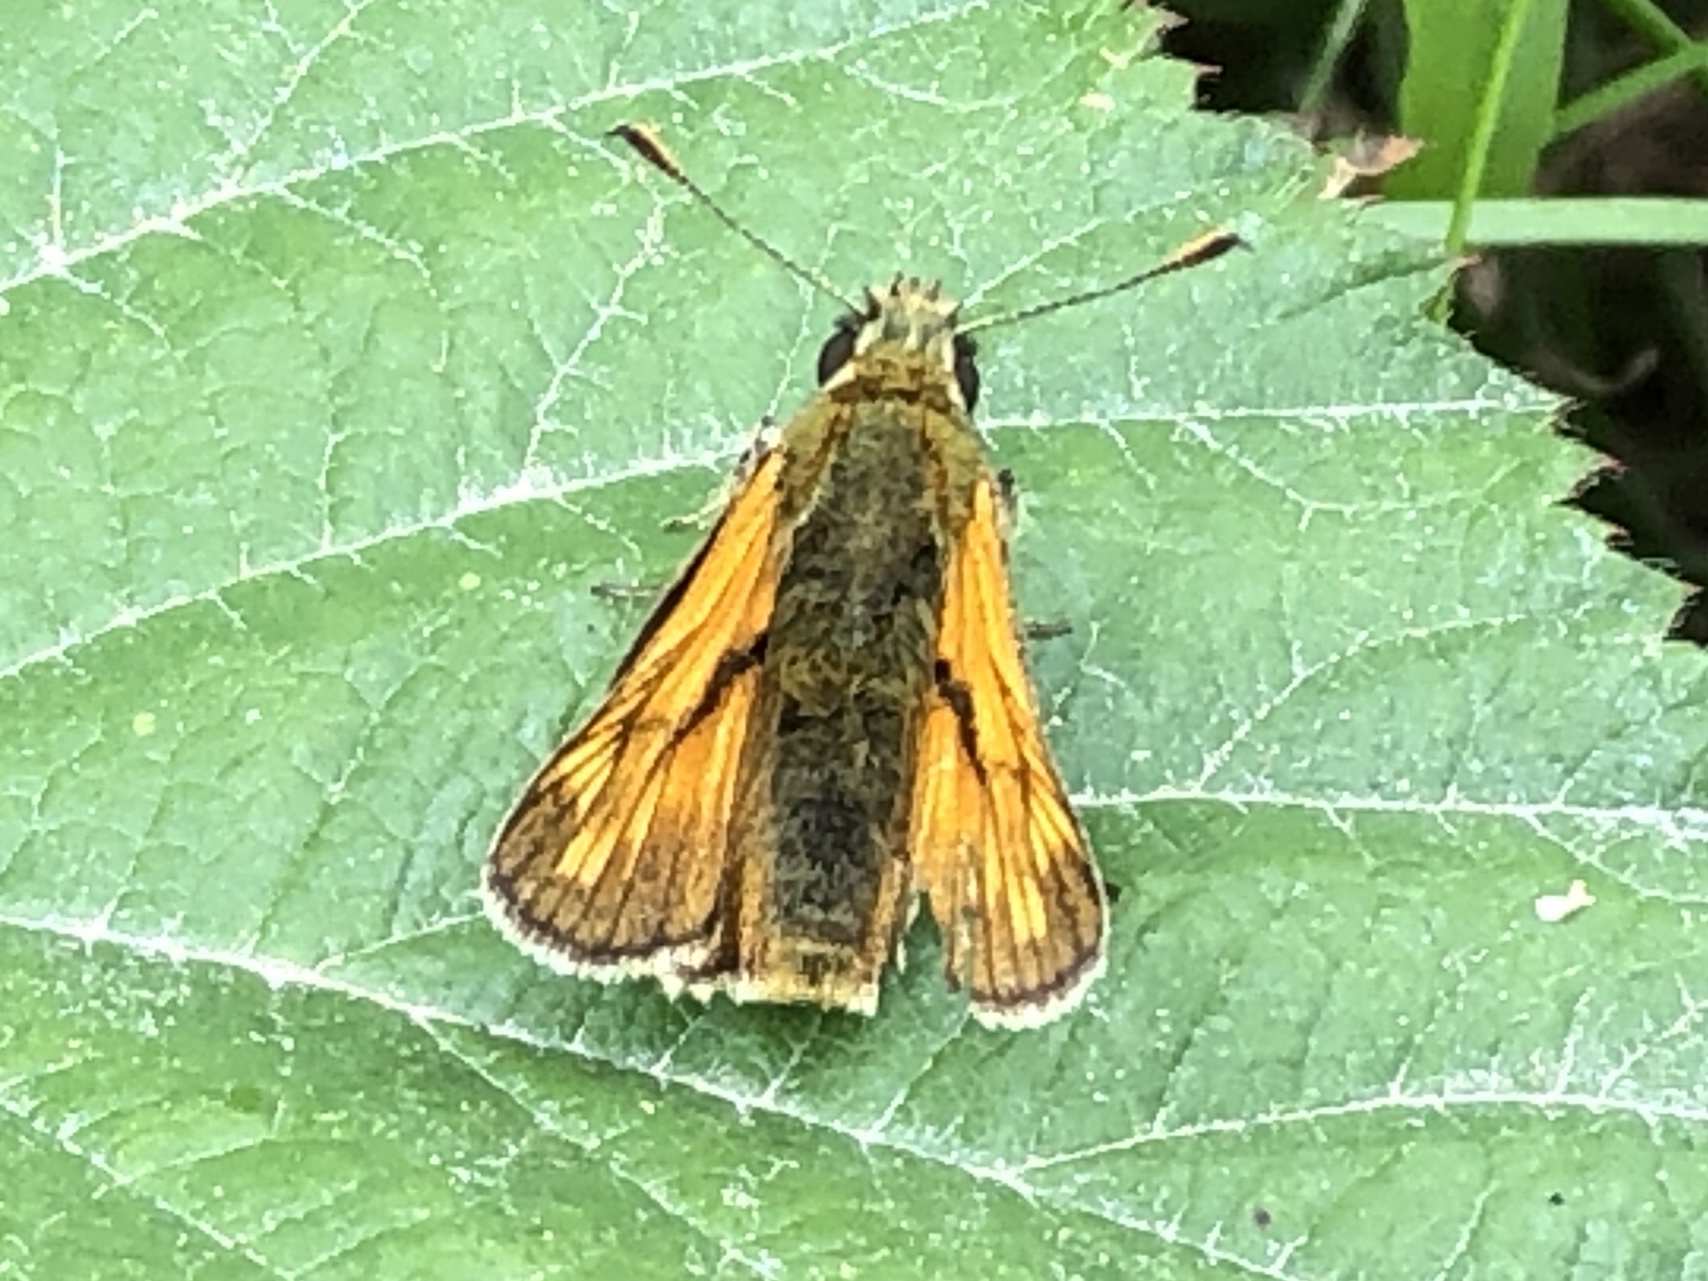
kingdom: Animalia
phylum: Arthropoda
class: Insecta
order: Lepidoptera
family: Hesperiidae
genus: Ochlodes
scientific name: Ochlodes venata
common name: Large skipper
